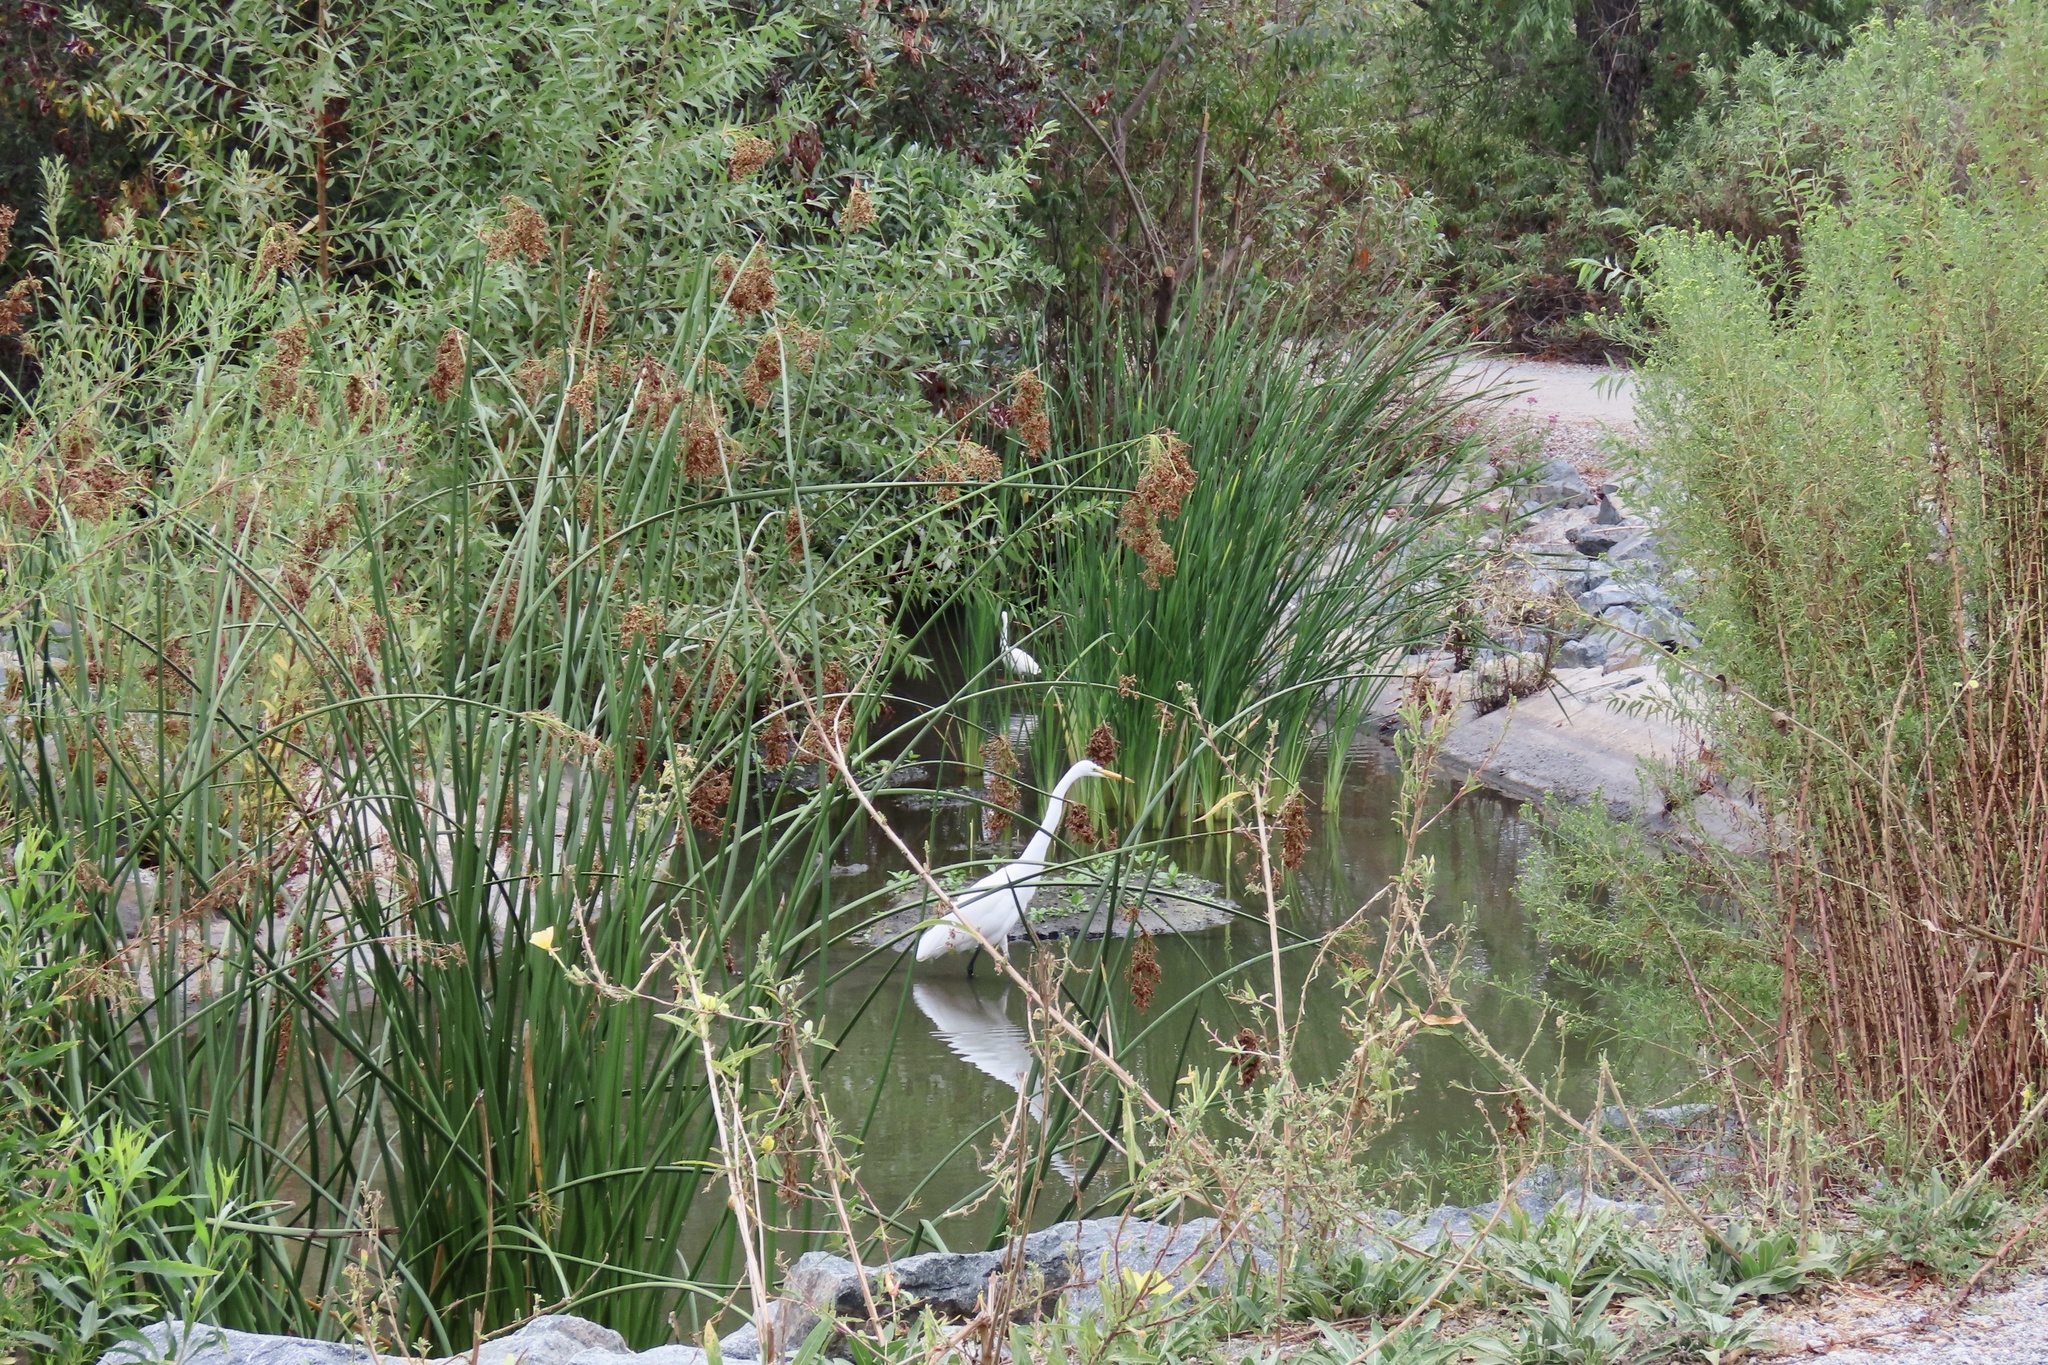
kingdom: Animalia
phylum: Chordata
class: Aves
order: Pelecaniformes
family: Ardeidae
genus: Ardea
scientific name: Ardea alba
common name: Great egret
